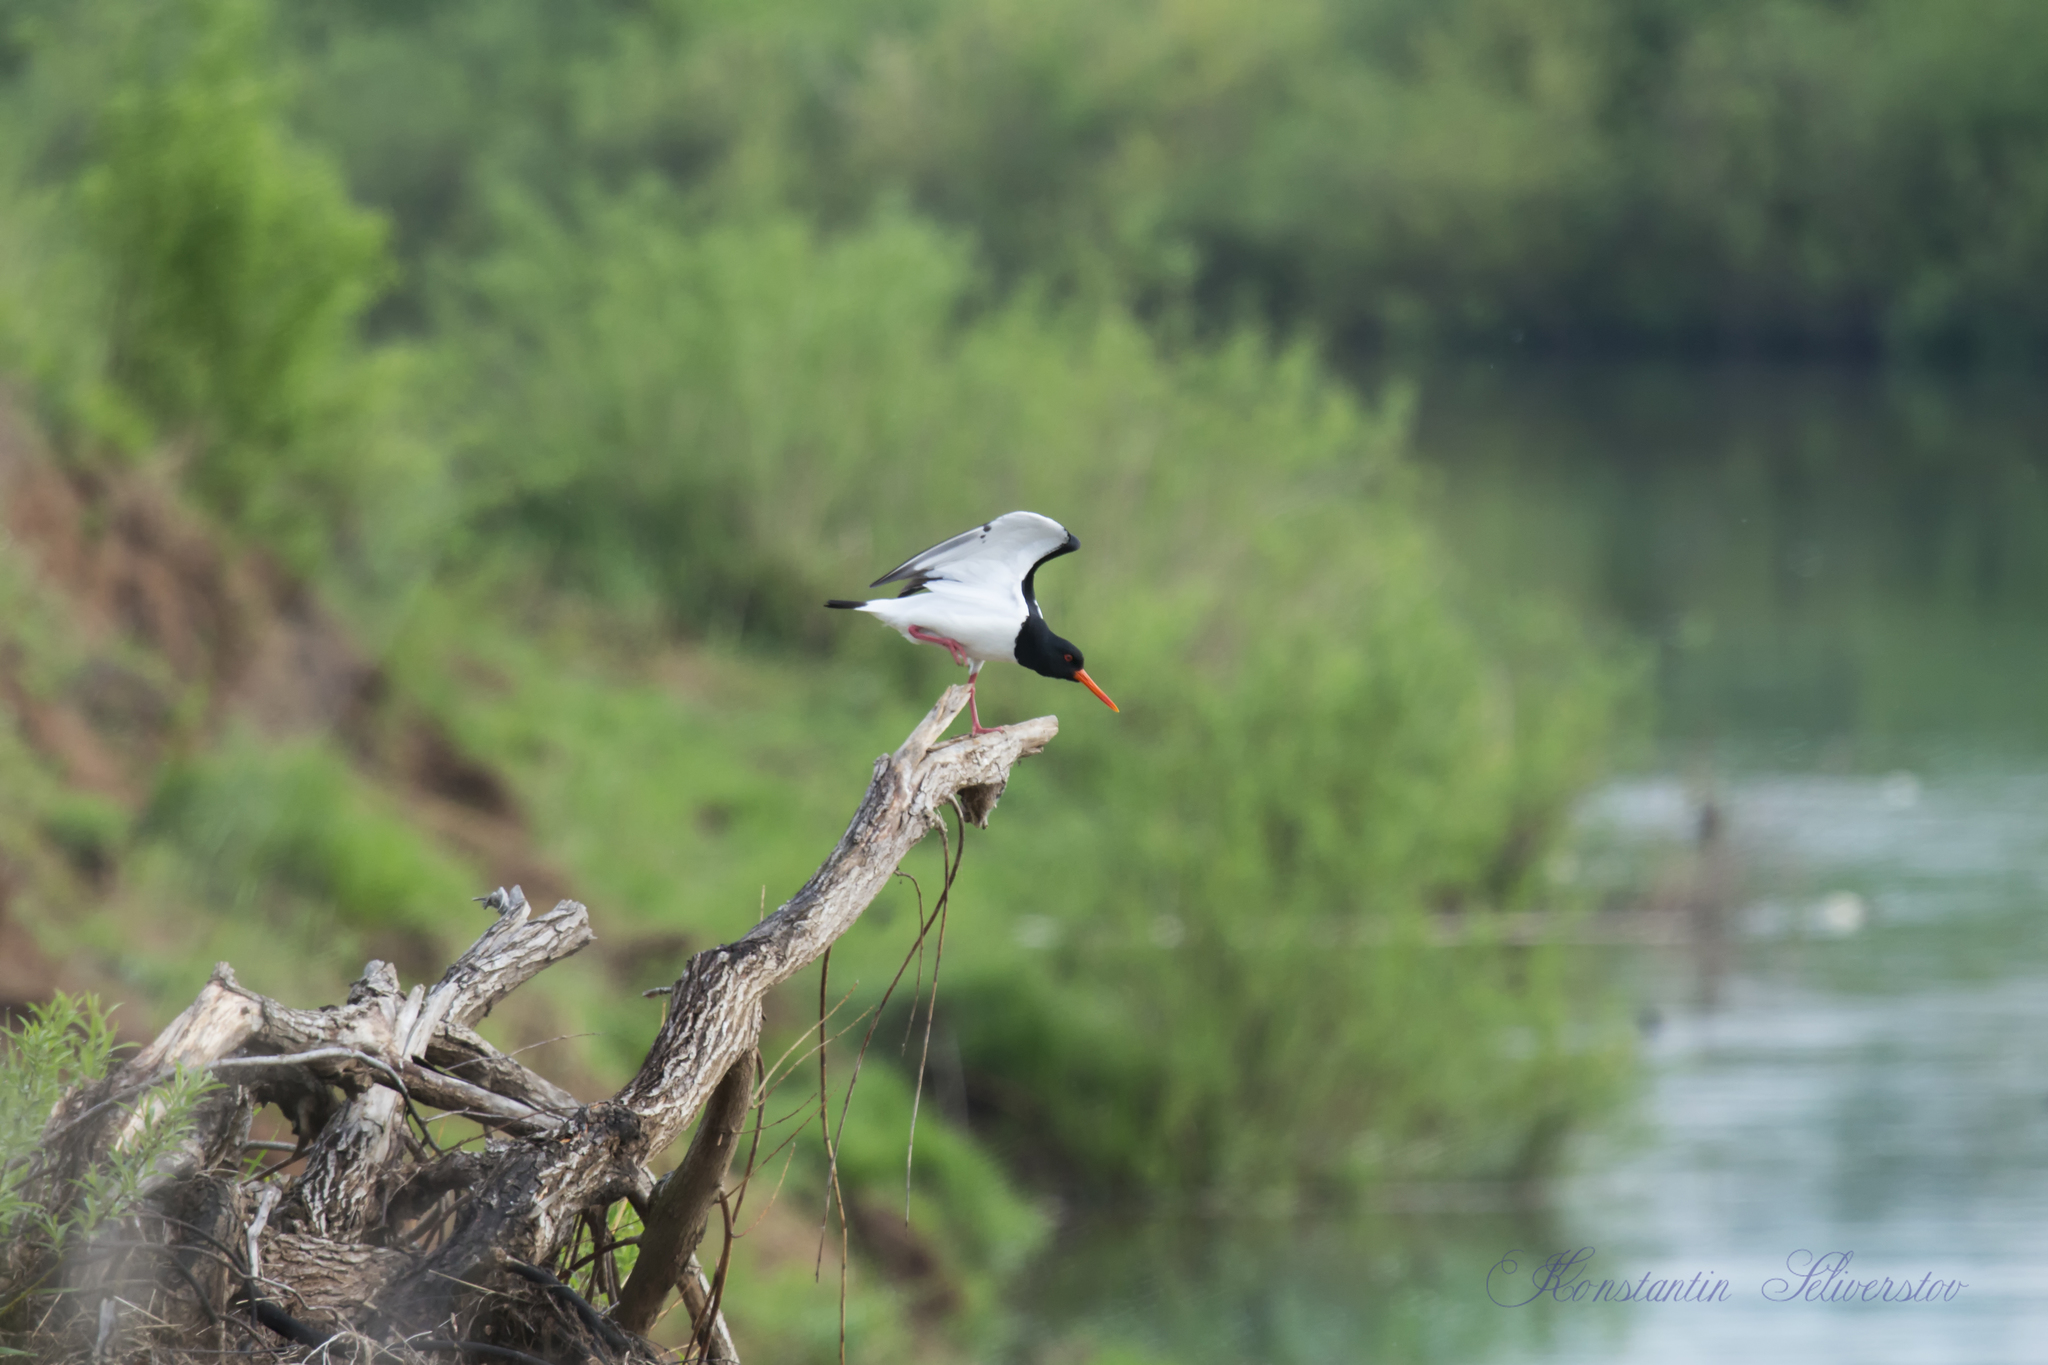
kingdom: Animalia
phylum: Chordata
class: Aves
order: Charadriiformes
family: Haematopodidae
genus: Haematopus
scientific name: Haematopus ostralegus
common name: Eurasian oystercatcher
